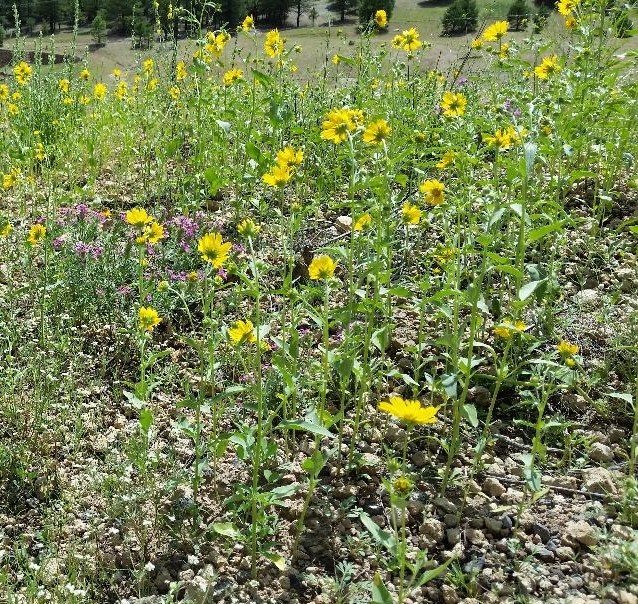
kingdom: Plantae
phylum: Tracheophyta
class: Magnoliopsida
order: Asterales
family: Asteraceae
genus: Verbesina
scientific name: Verbesina encelioides
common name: Golden crownbeard
